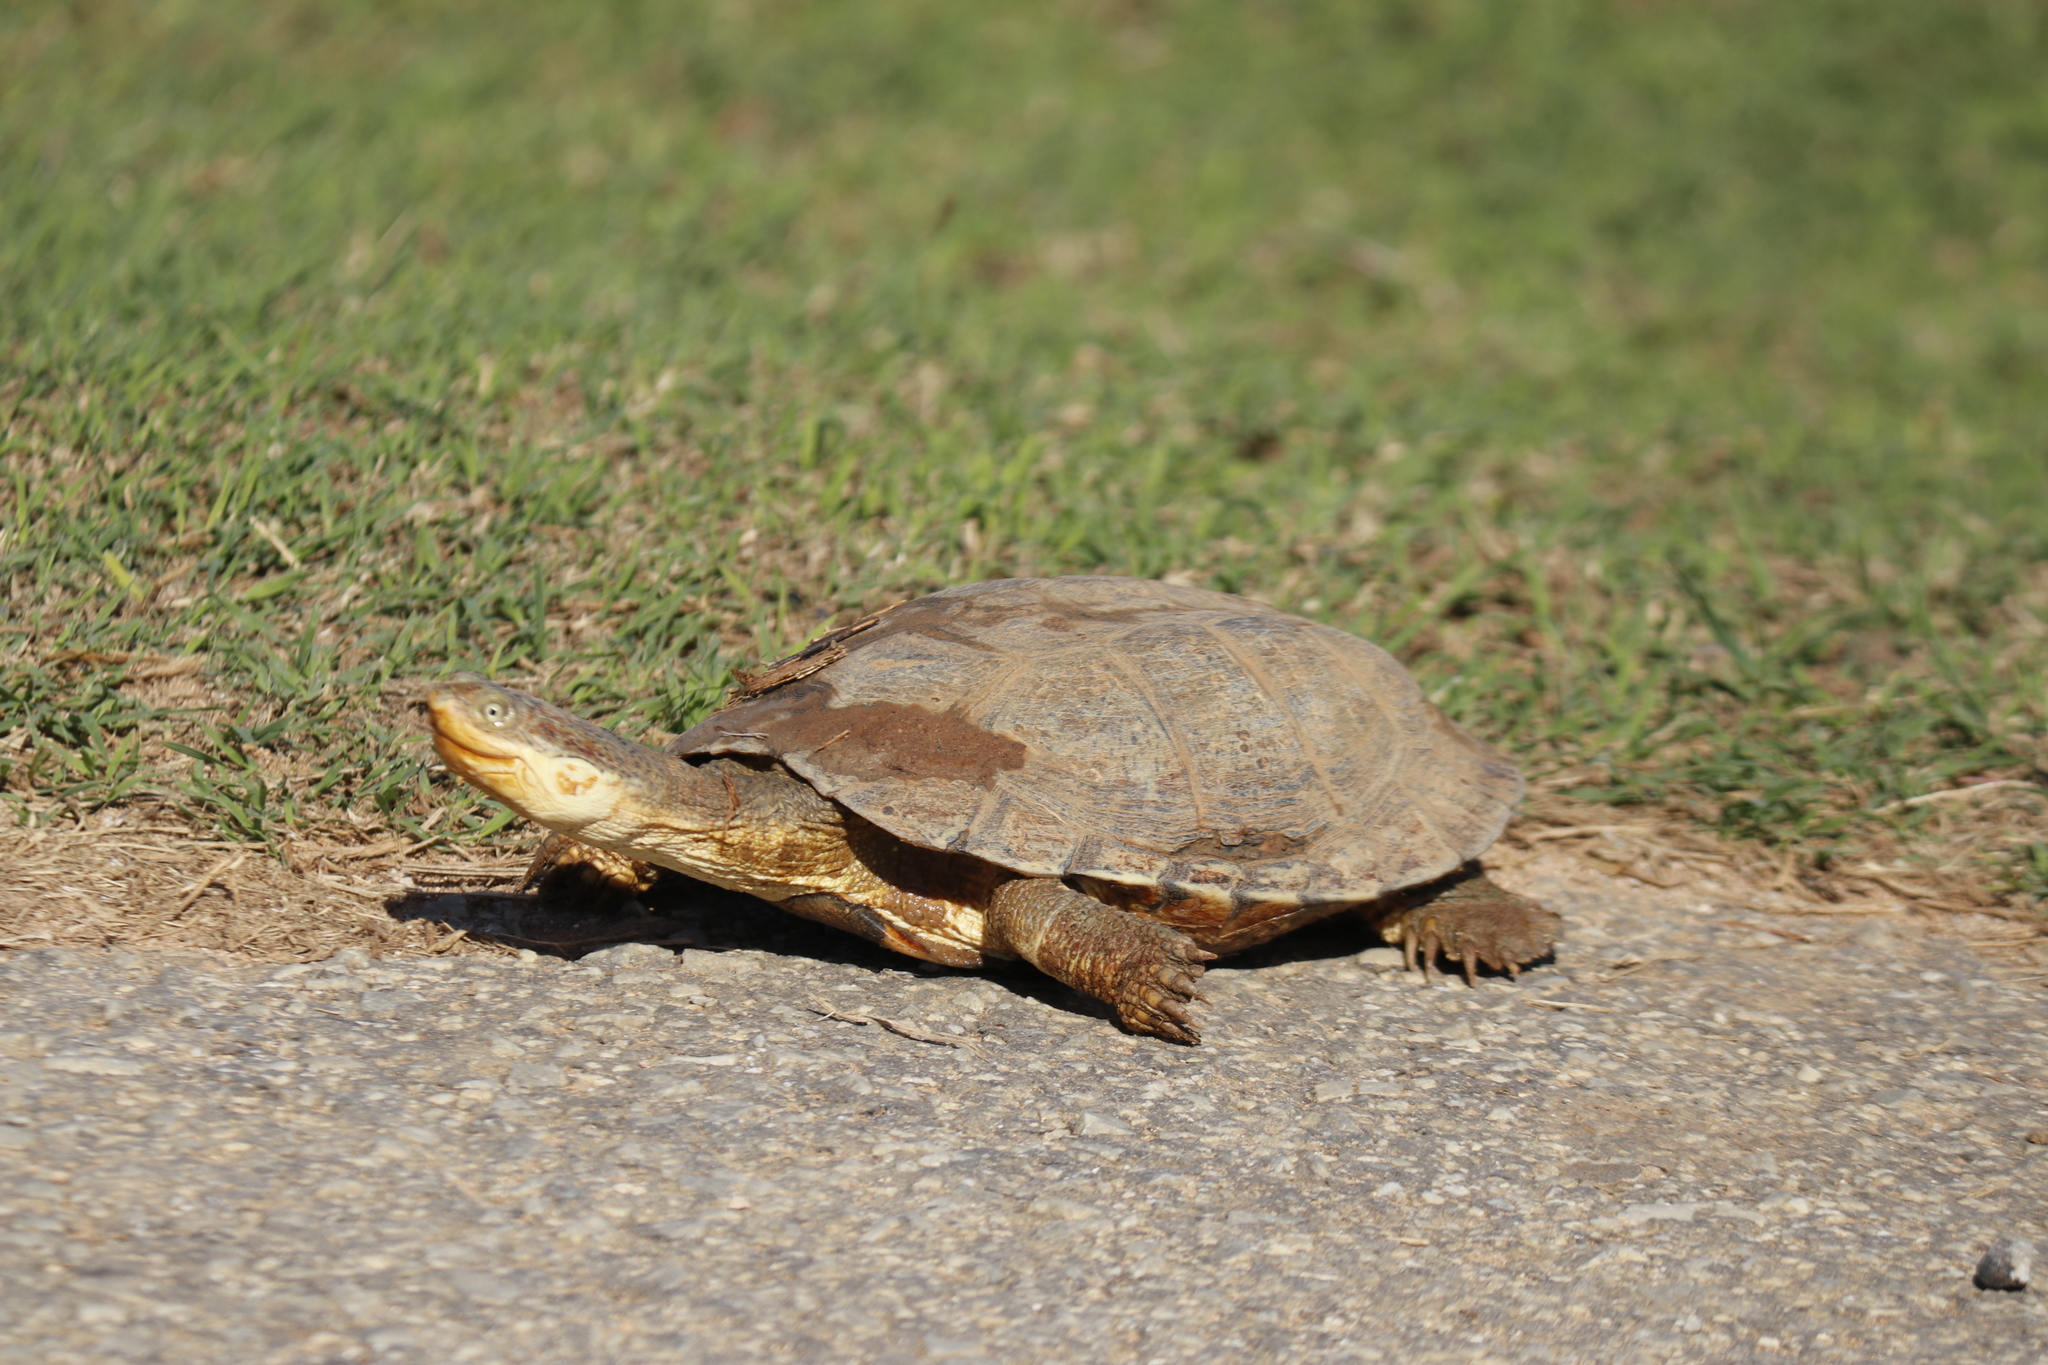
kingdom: Animalia
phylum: Chordata
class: Testudines
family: Pelomedusidae
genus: Pelomedusa
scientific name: Pelomedusa galeata
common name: South african helmeted terrapin
